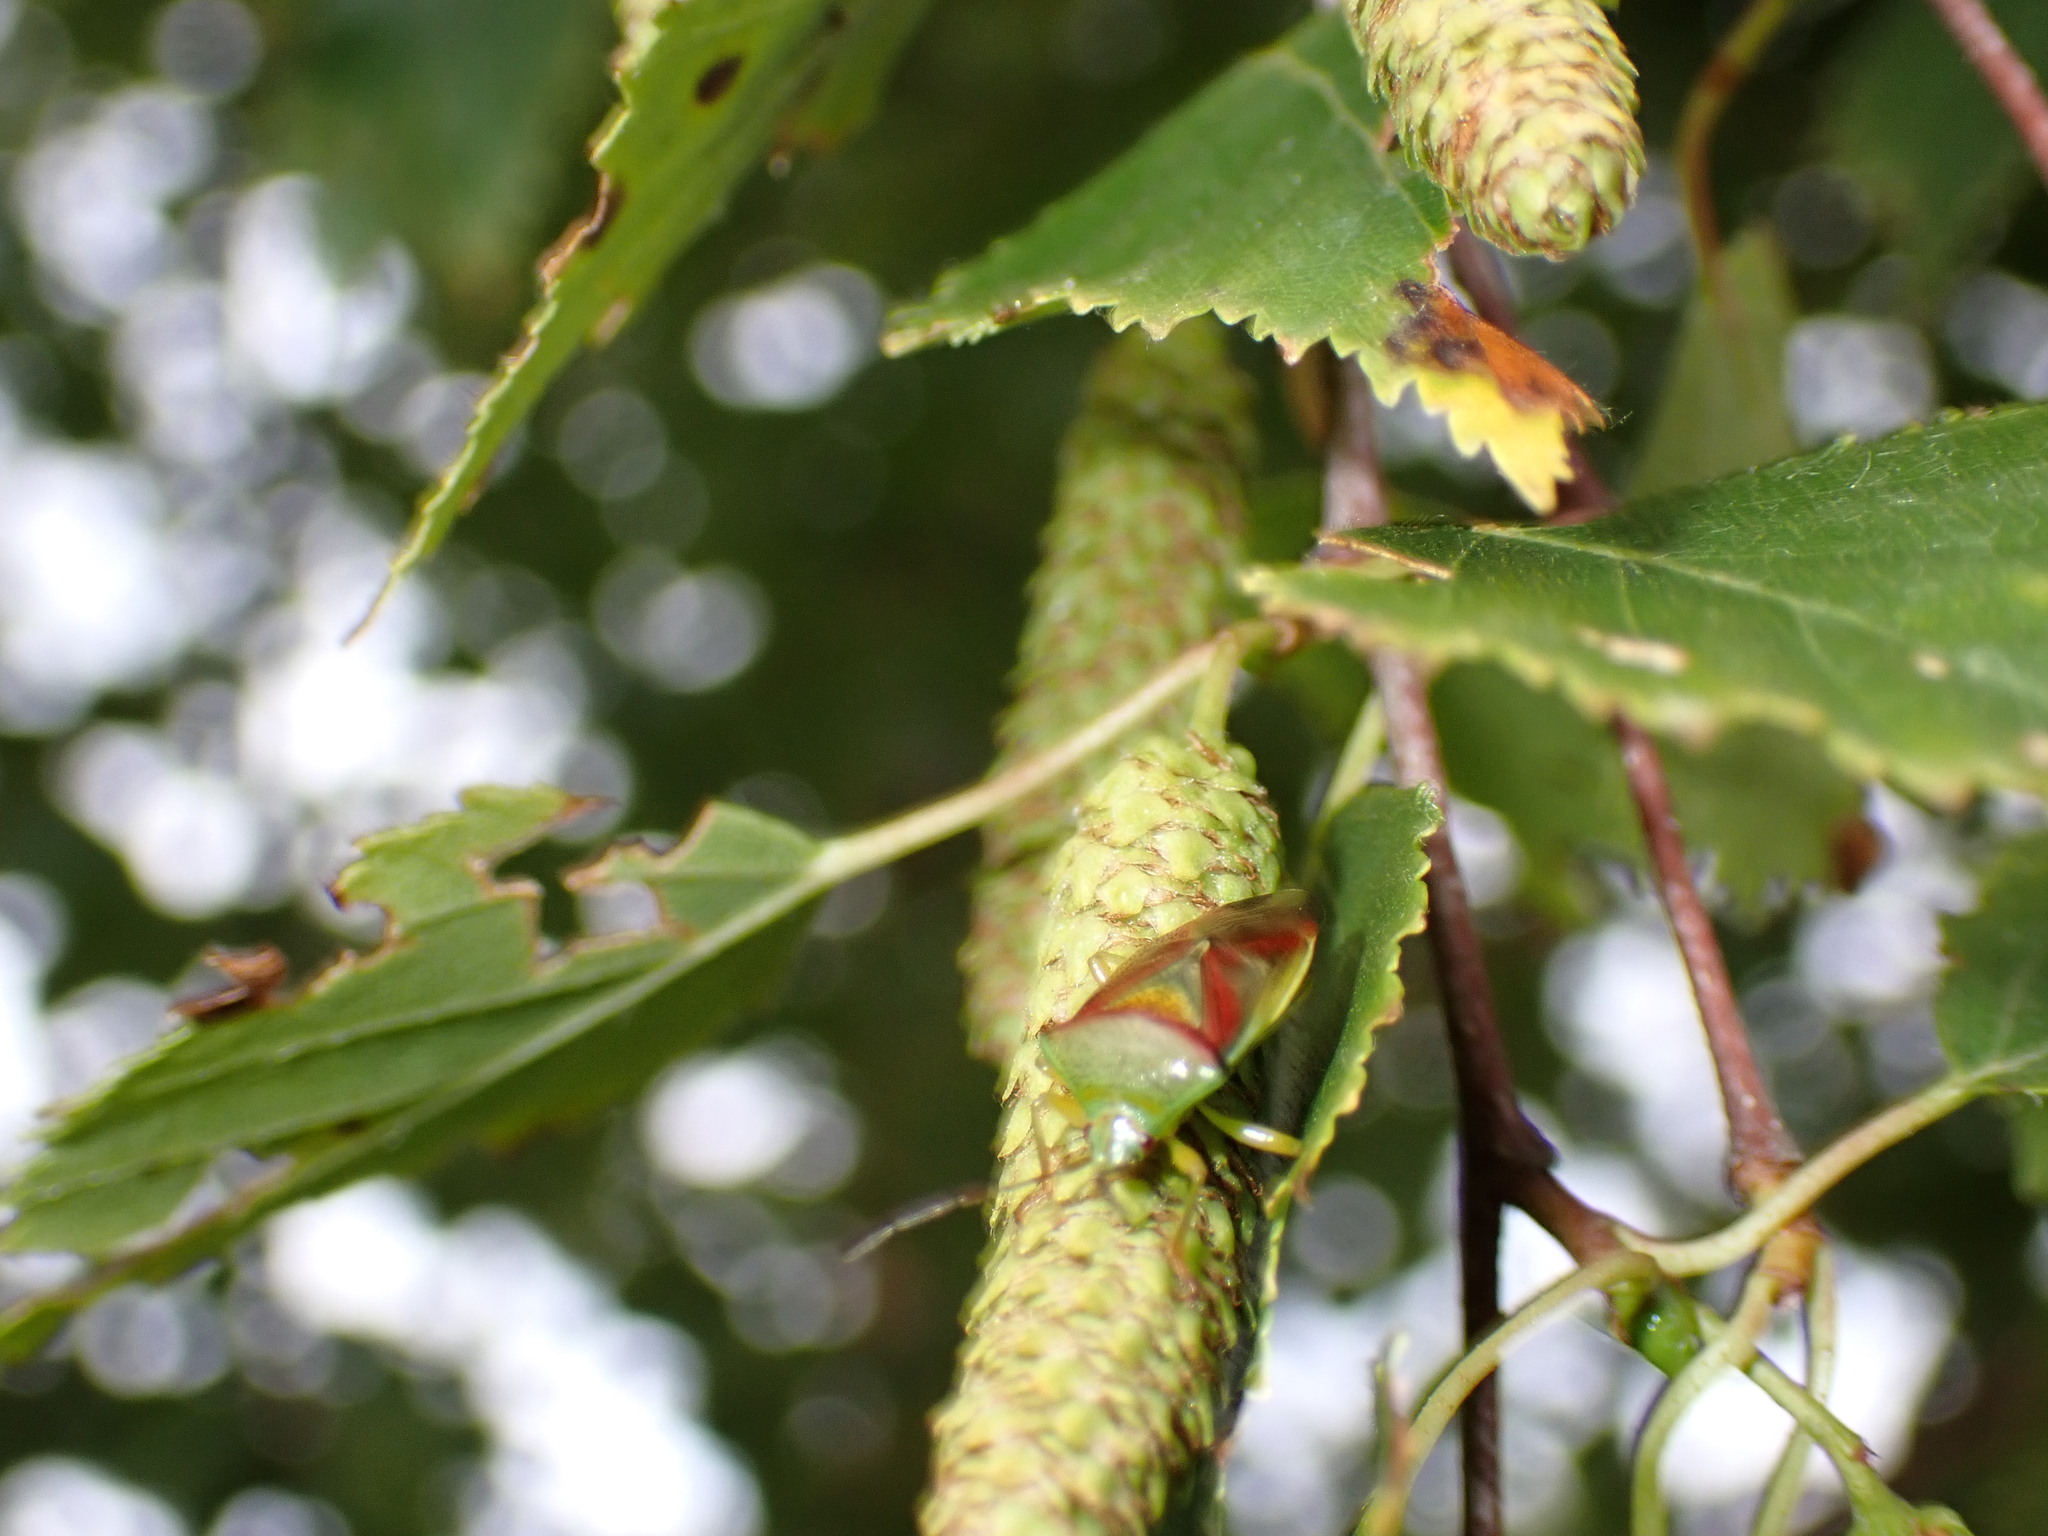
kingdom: Animalia
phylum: Arthropoda
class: Insecta
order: Hemiptera
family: Acanthosomatidae
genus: Elasmostethus
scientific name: Elasmostethus interstinctus
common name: Birch shieldbug
